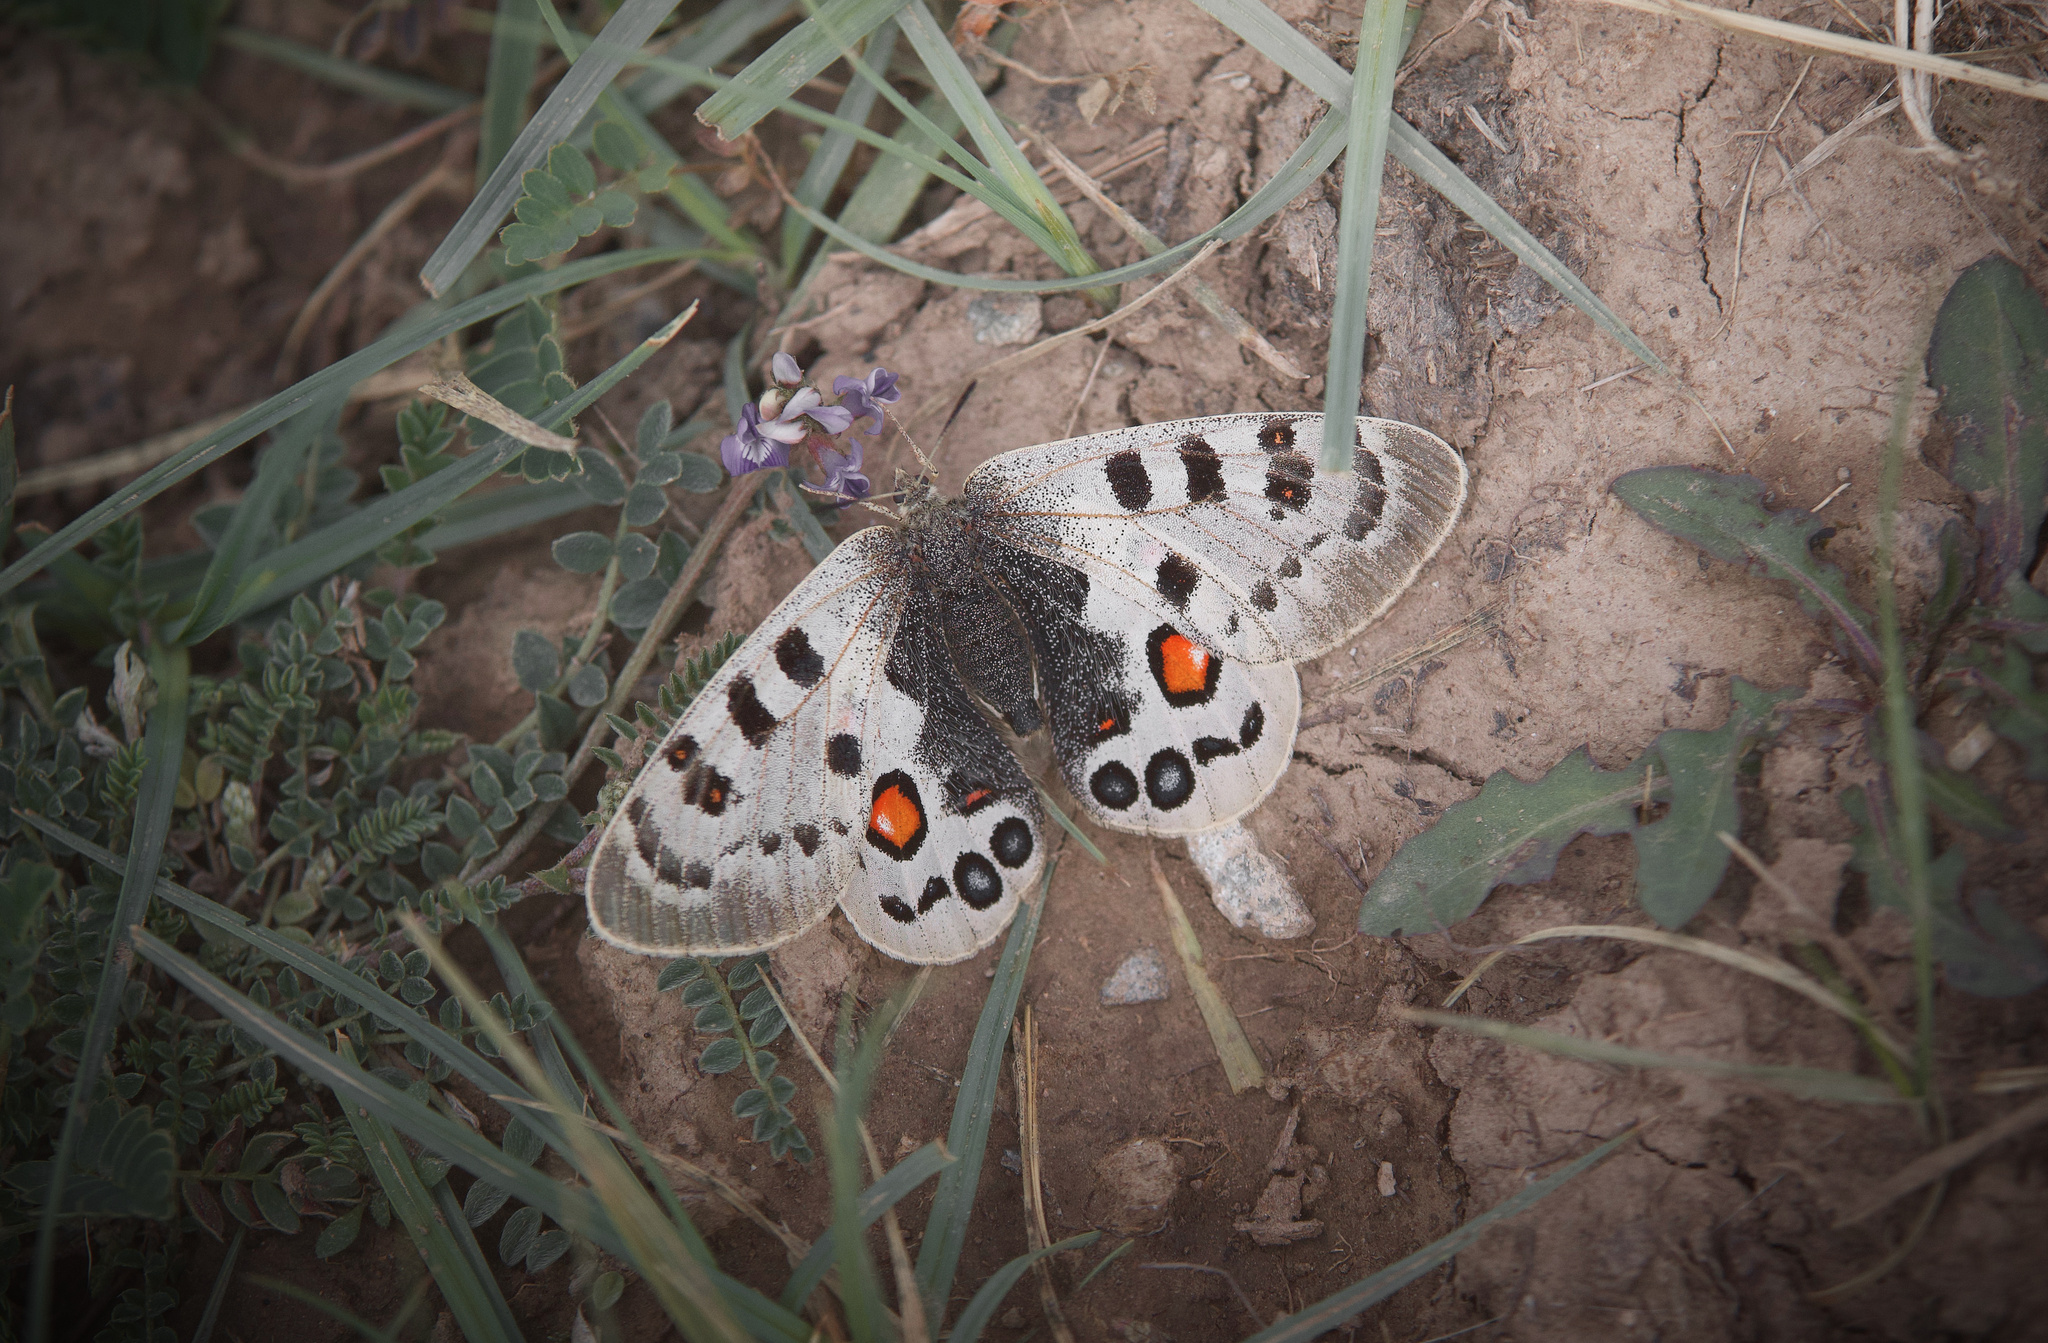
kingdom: Animalia
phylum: Arthropoda
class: Insecta
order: Lepidoptera
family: Papilionidae
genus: Parnassius
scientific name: Parnassius szechenyii
